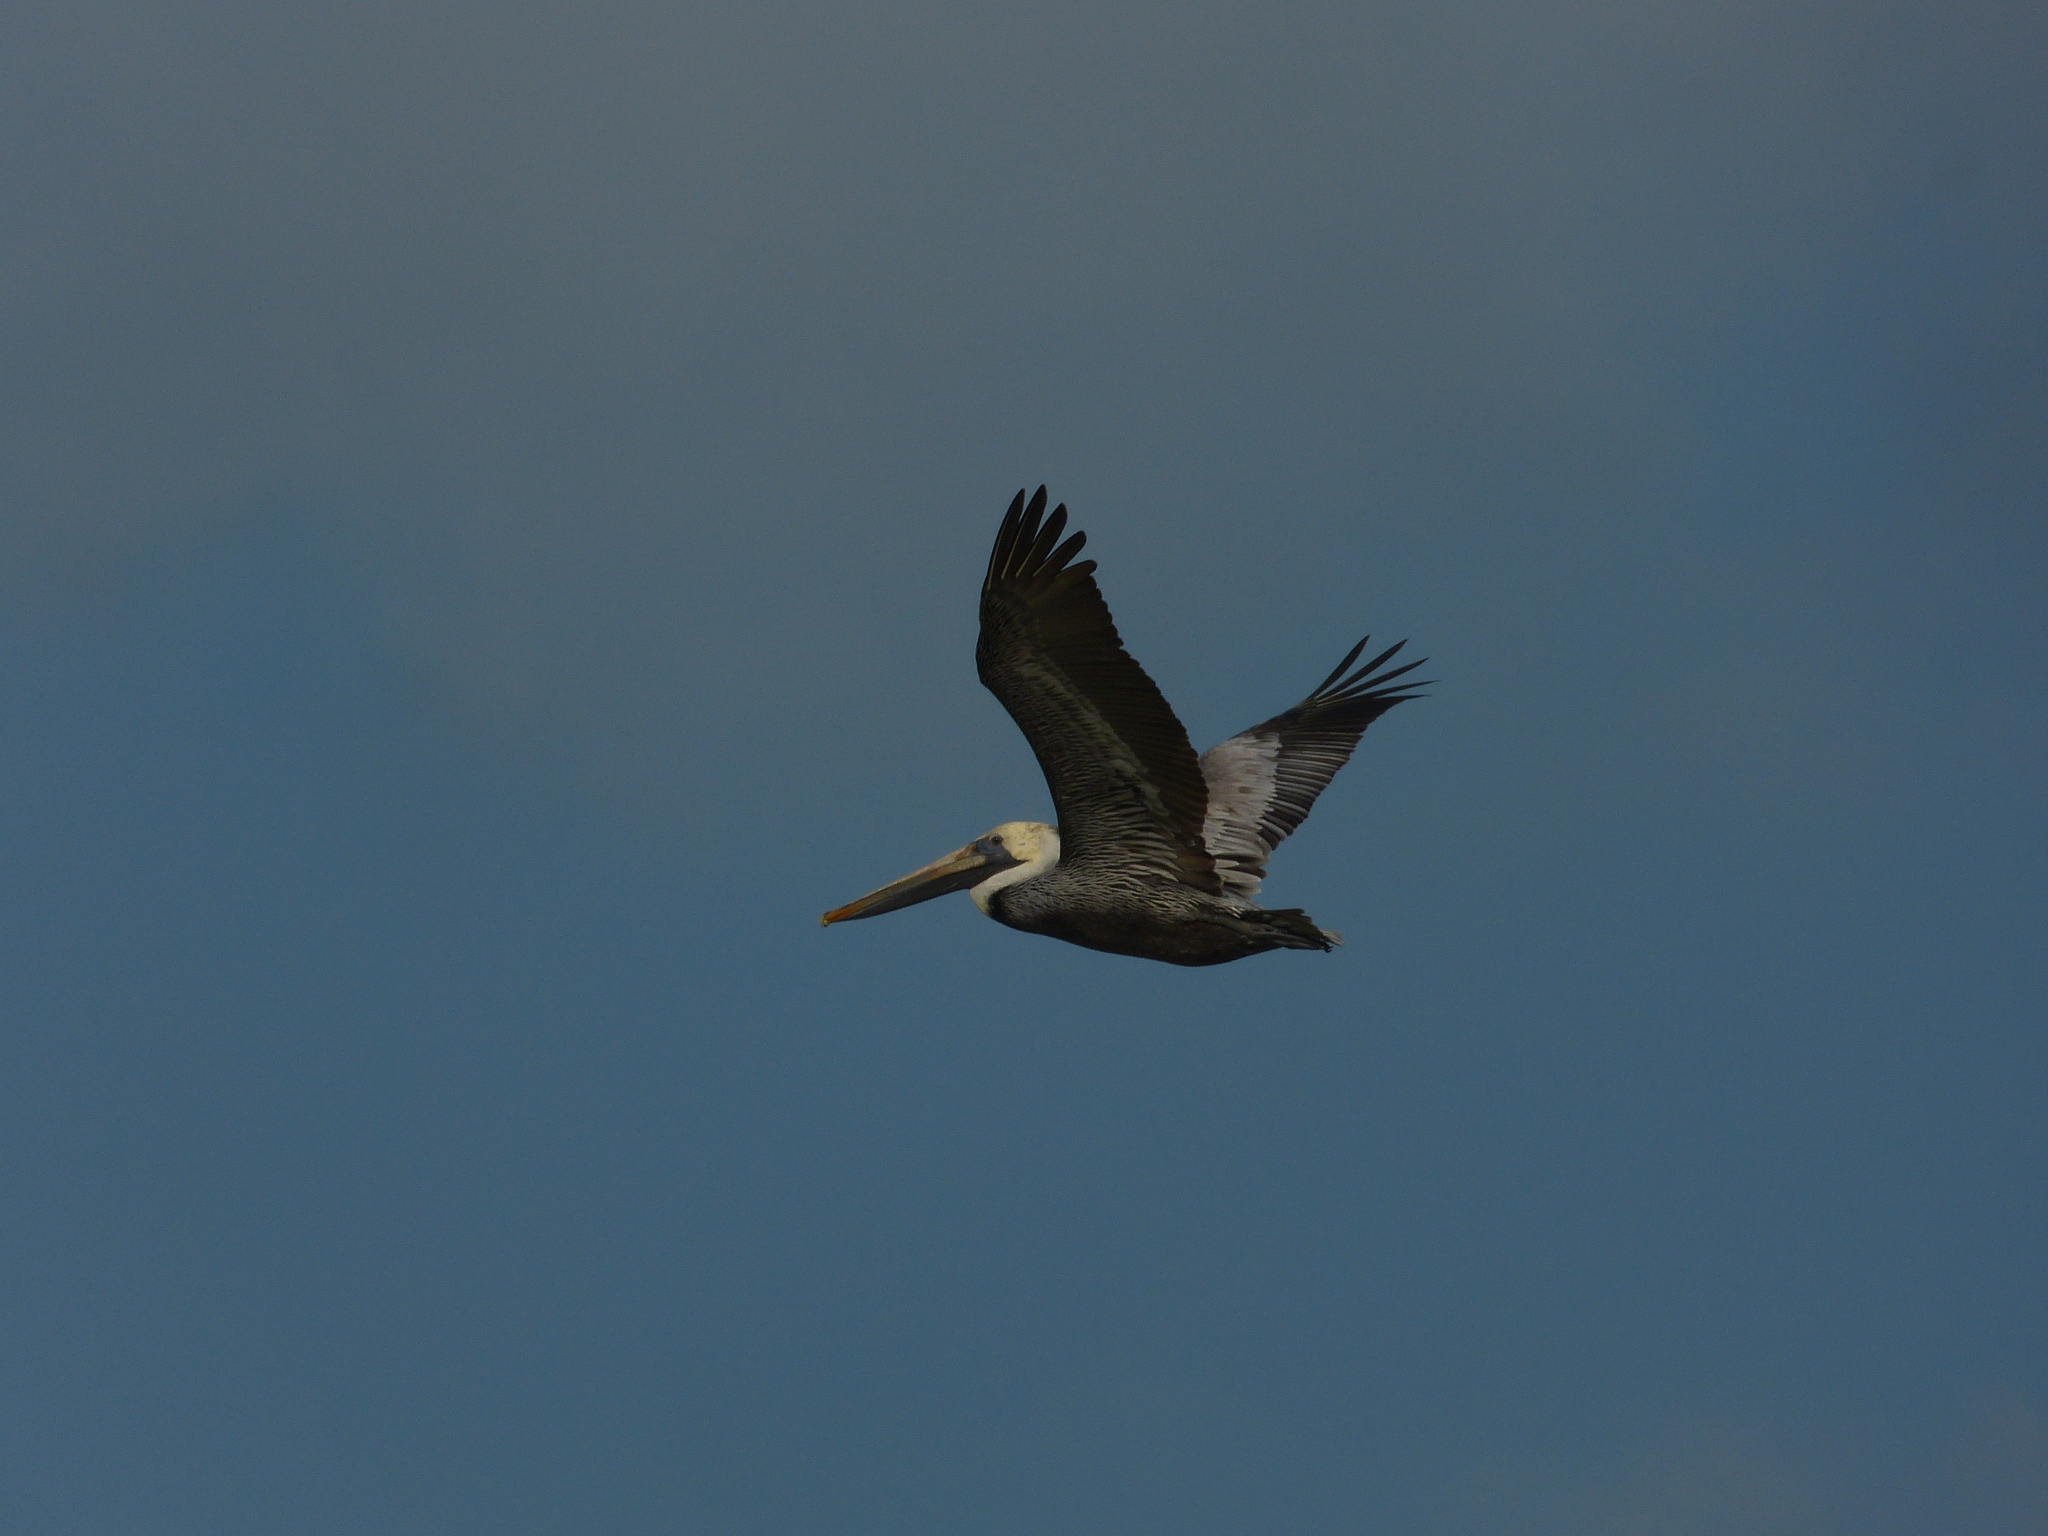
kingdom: Animalia
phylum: Chordata
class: Aves
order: Pelecaniformes
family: Pelecanidae
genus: Pelecanus
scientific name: Pelecanus occidentalis
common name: Brown pelican
